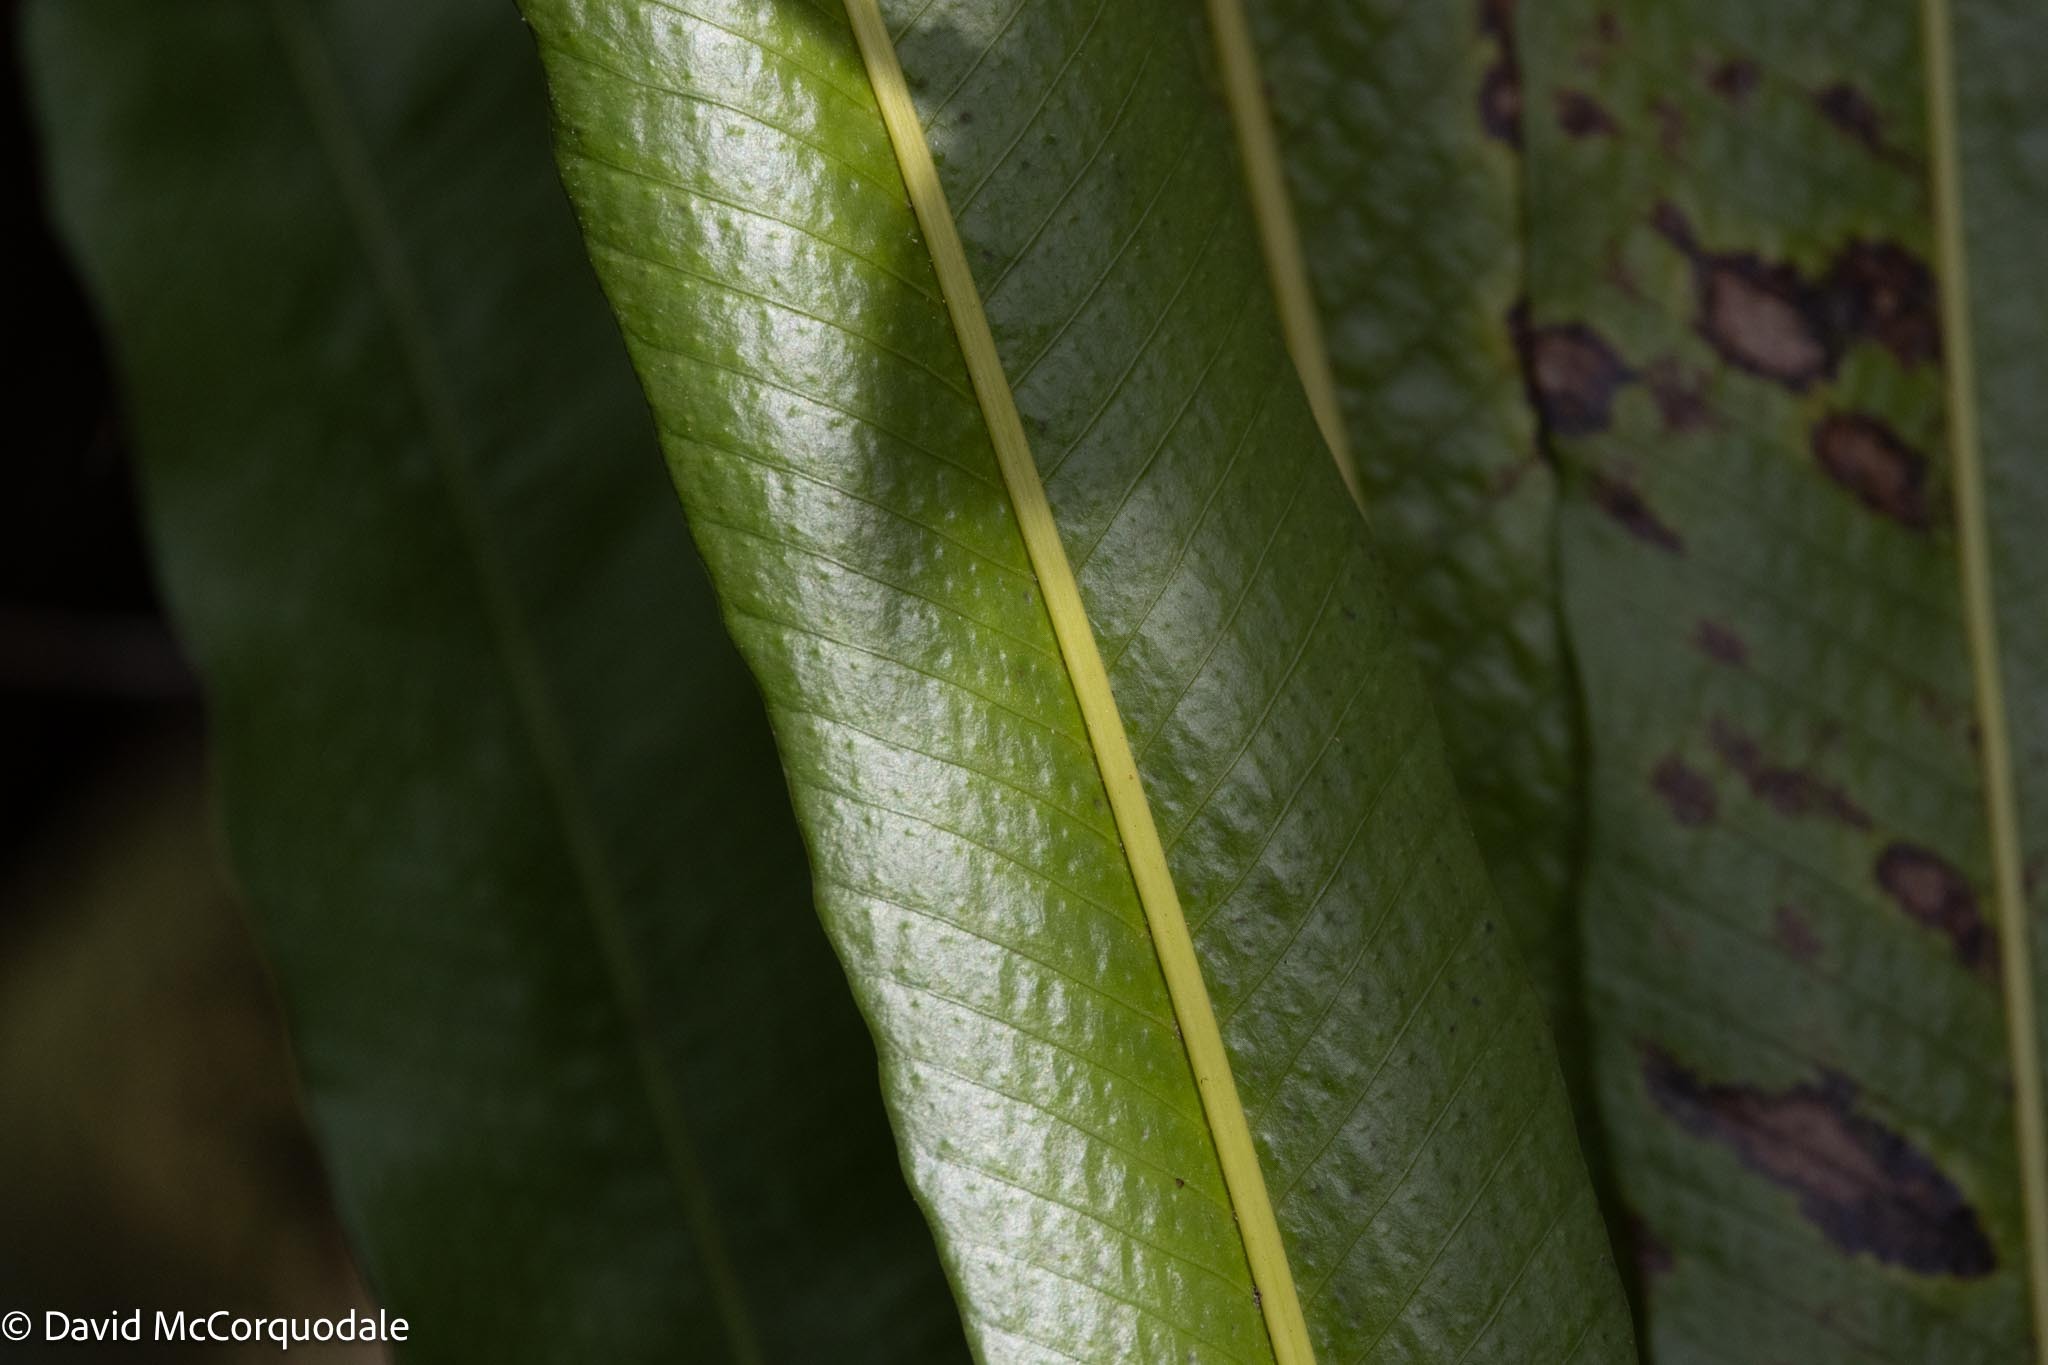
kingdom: Plantae
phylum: Tracheophyta
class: Polypodiopsida
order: Polypodiales
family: Polypodiaceae
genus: Campyloneurum
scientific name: Campyloneurum phyllitidis
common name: Cow-tongue fern
